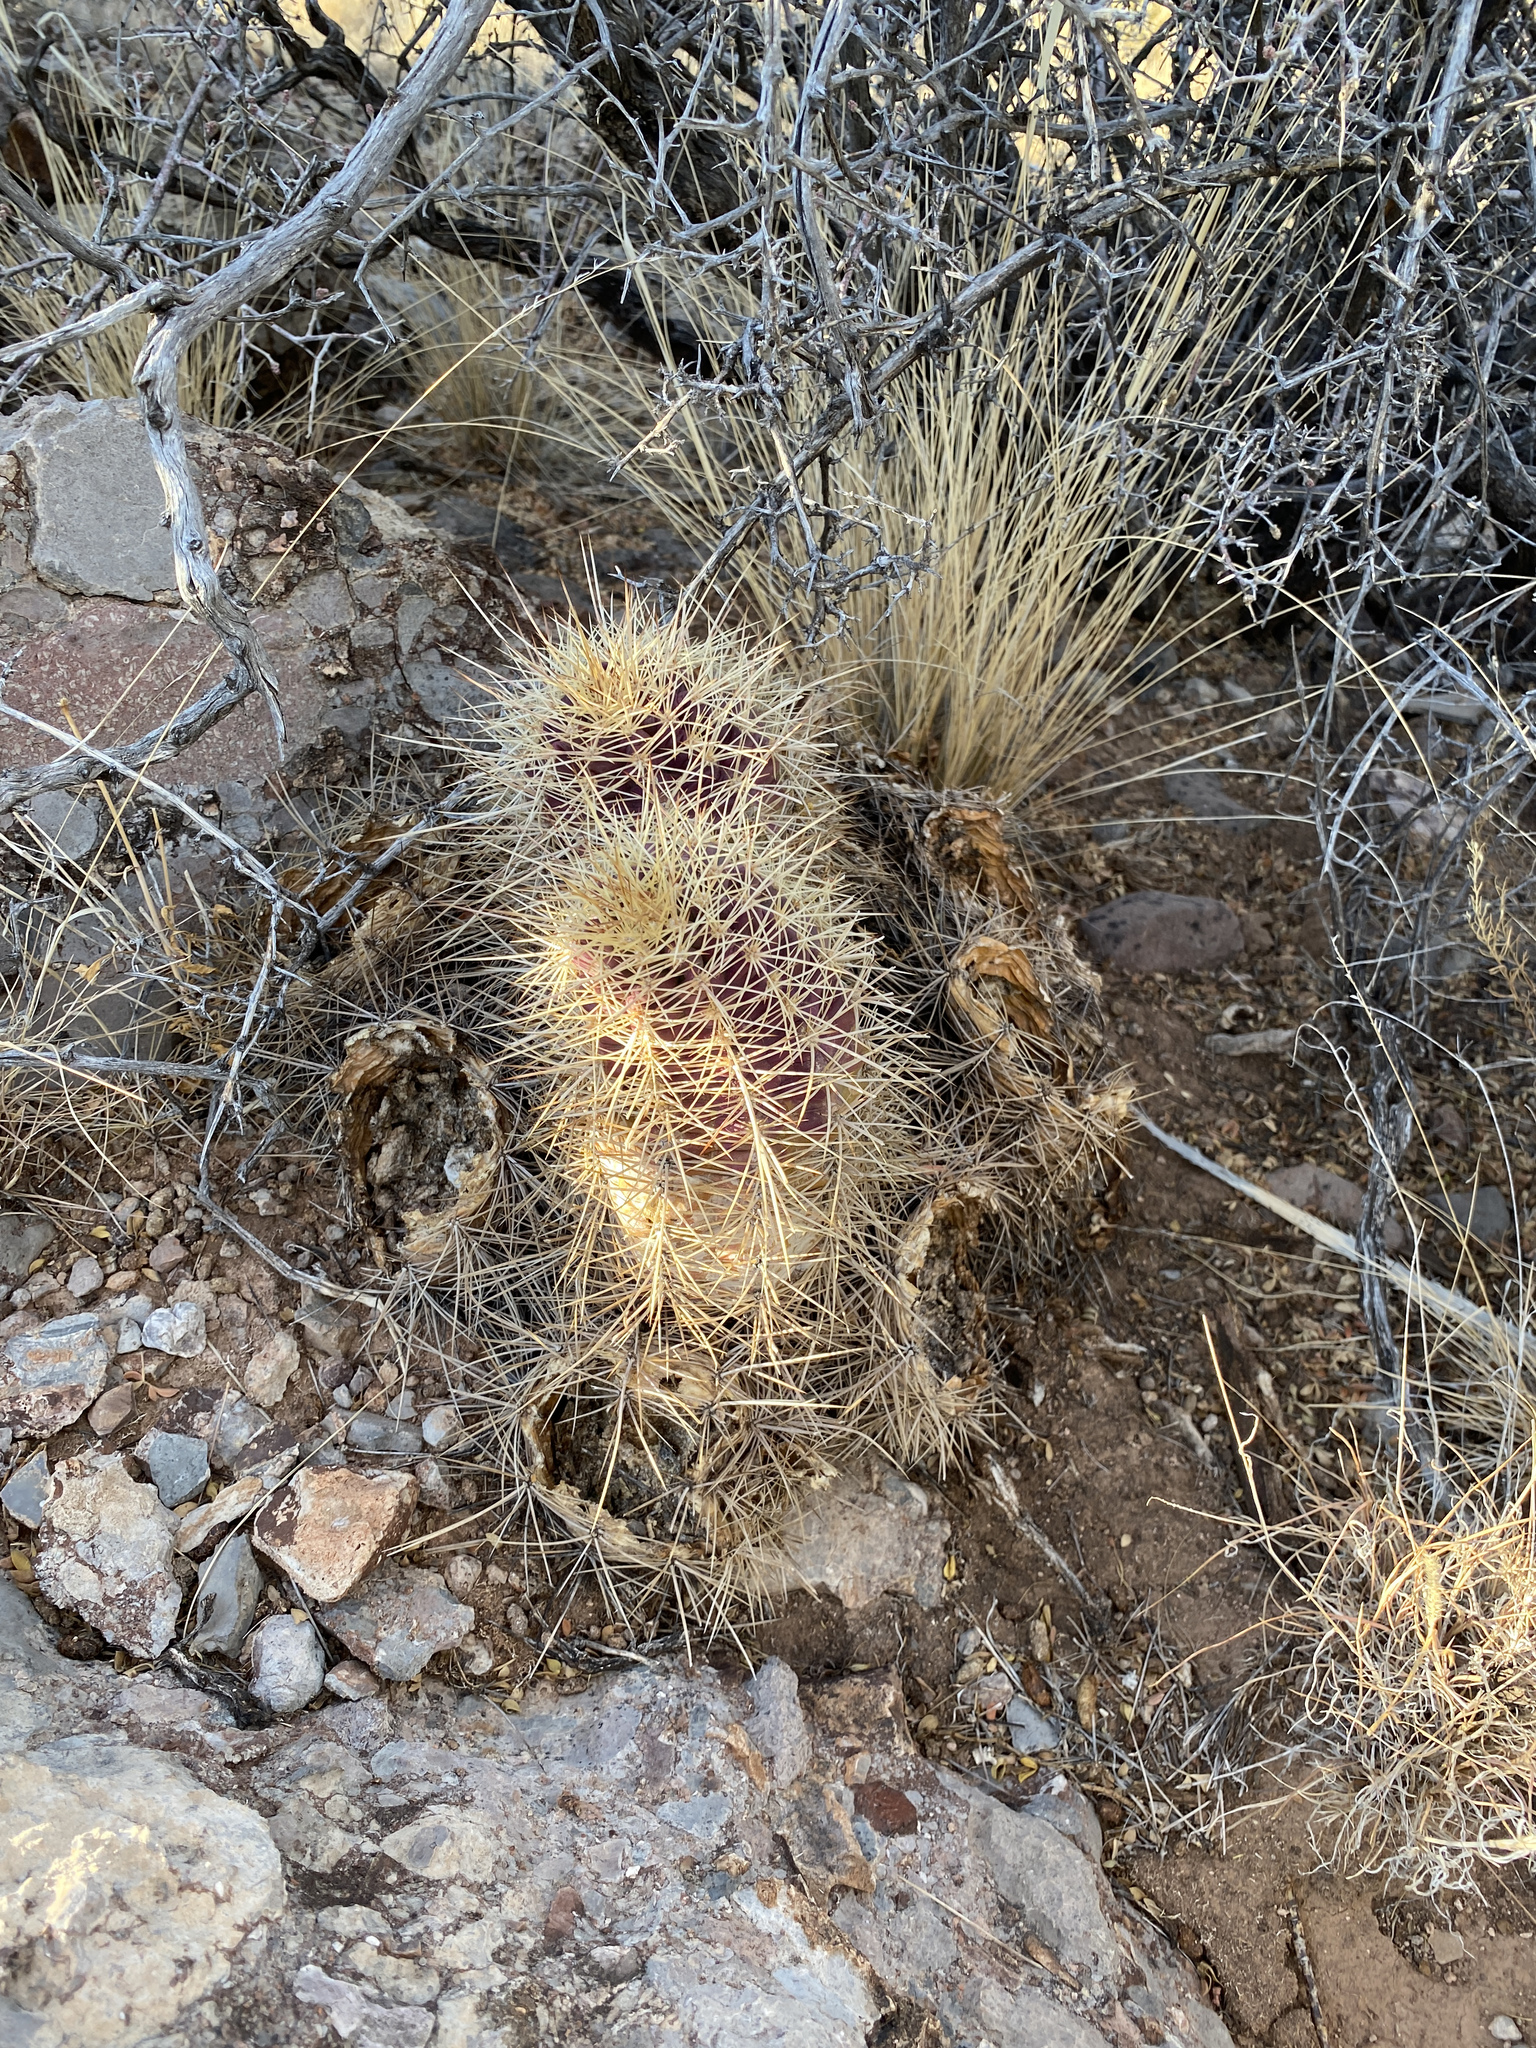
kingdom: Plantae
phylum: Tracheophyta
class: Magnoliopsida
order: Caryophyllales
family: Cactaceae
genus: Echinocereus
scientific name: Echinocereus coccineus
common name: Scarlet hedgehog cactus
